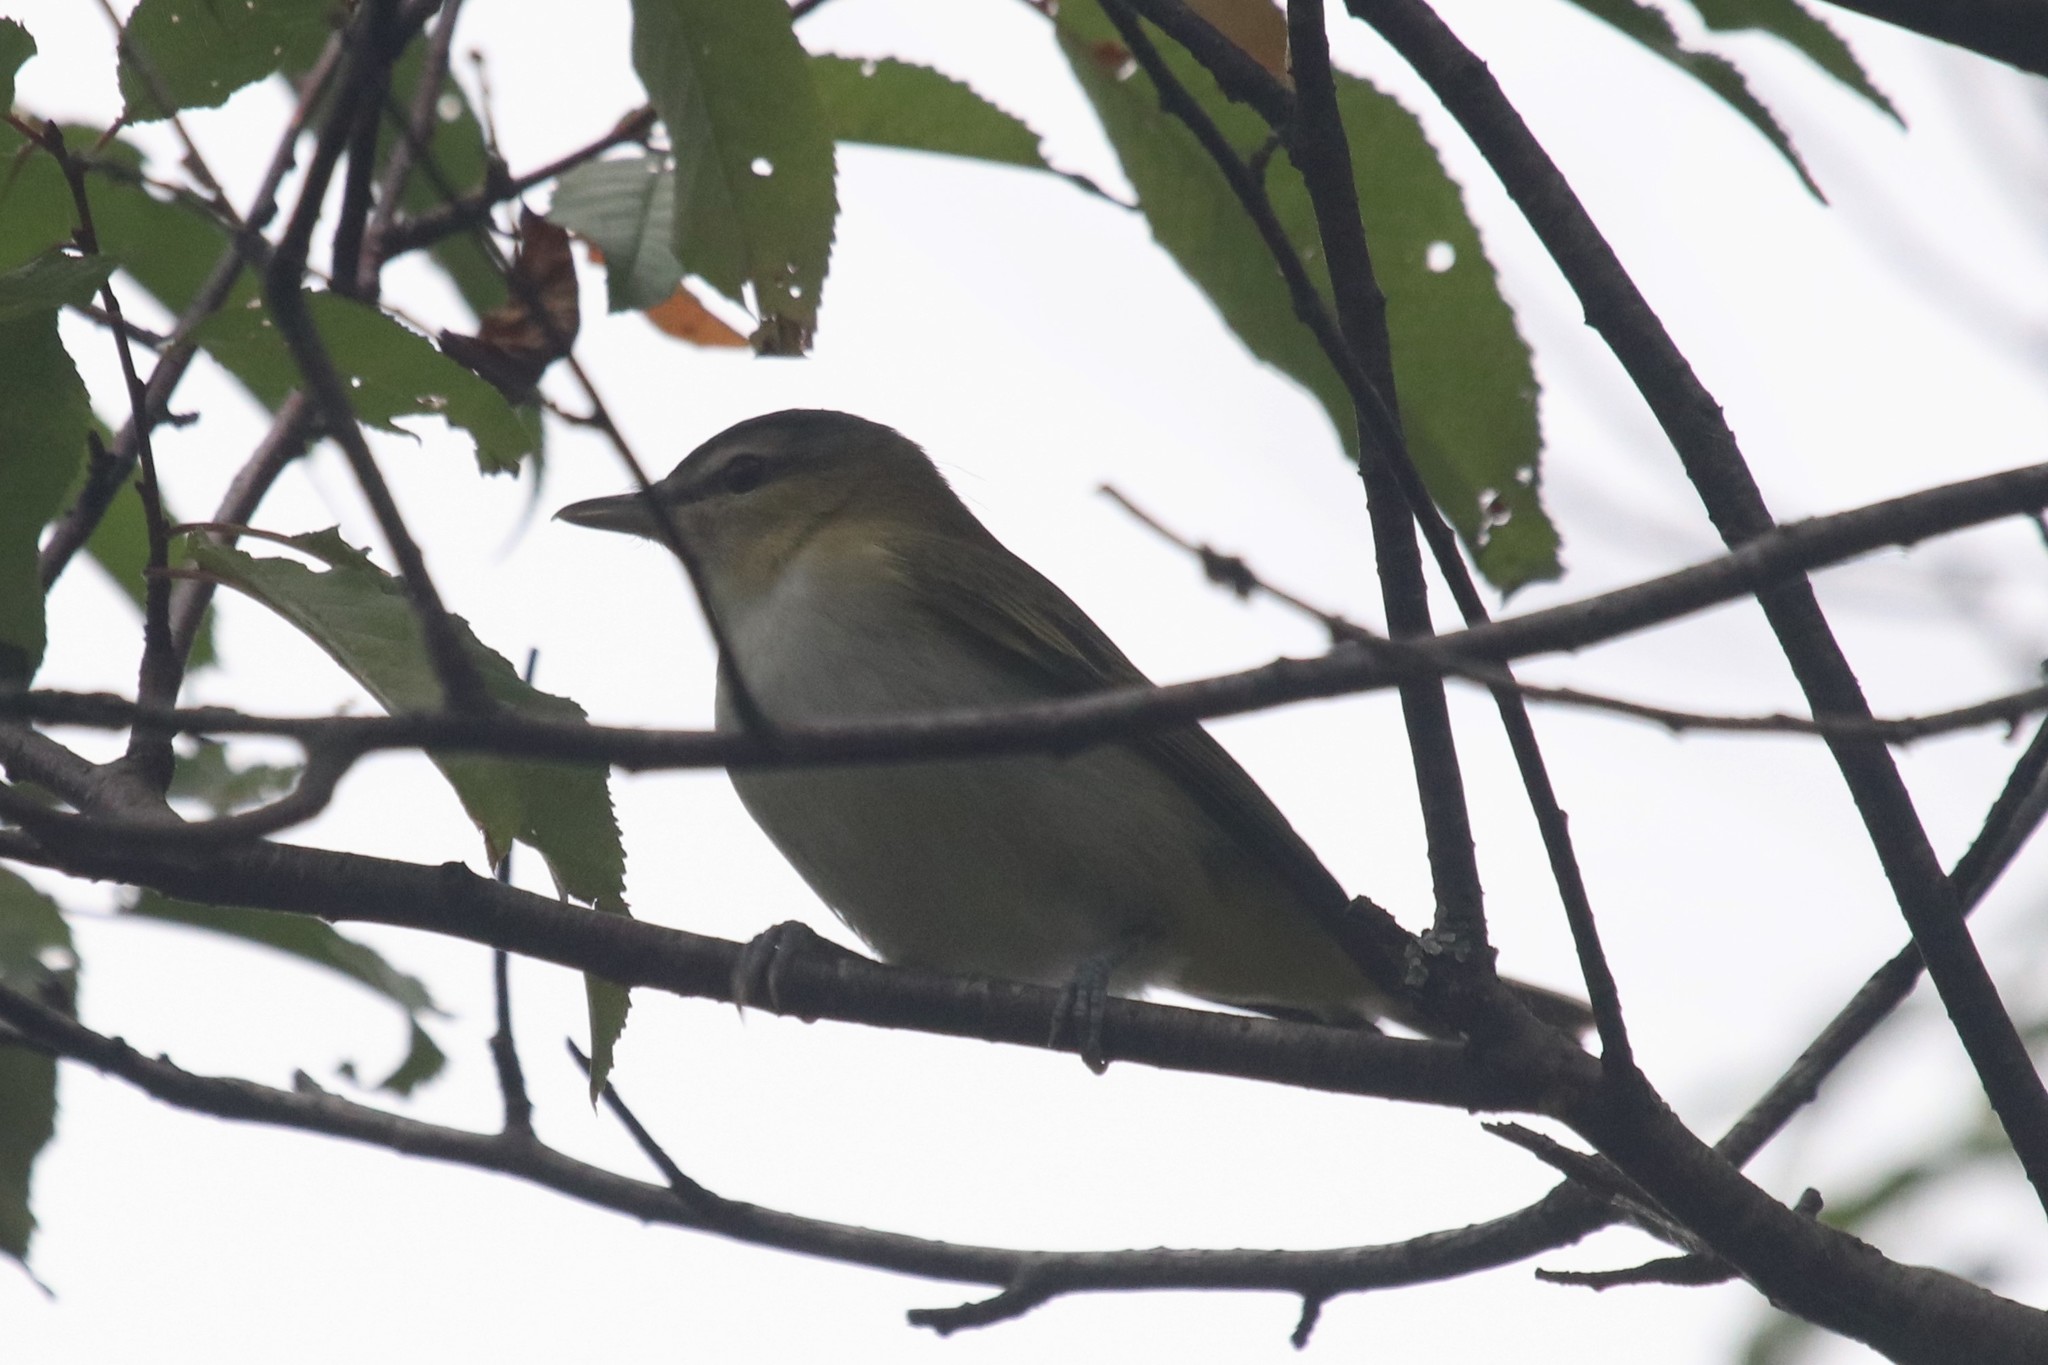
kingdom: Animalia
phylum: Chordata
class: Aves
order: Passeriformes
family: Vireonidae
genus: Vireo
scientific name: Vireo olivaceus
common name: Red-eyed vireo
